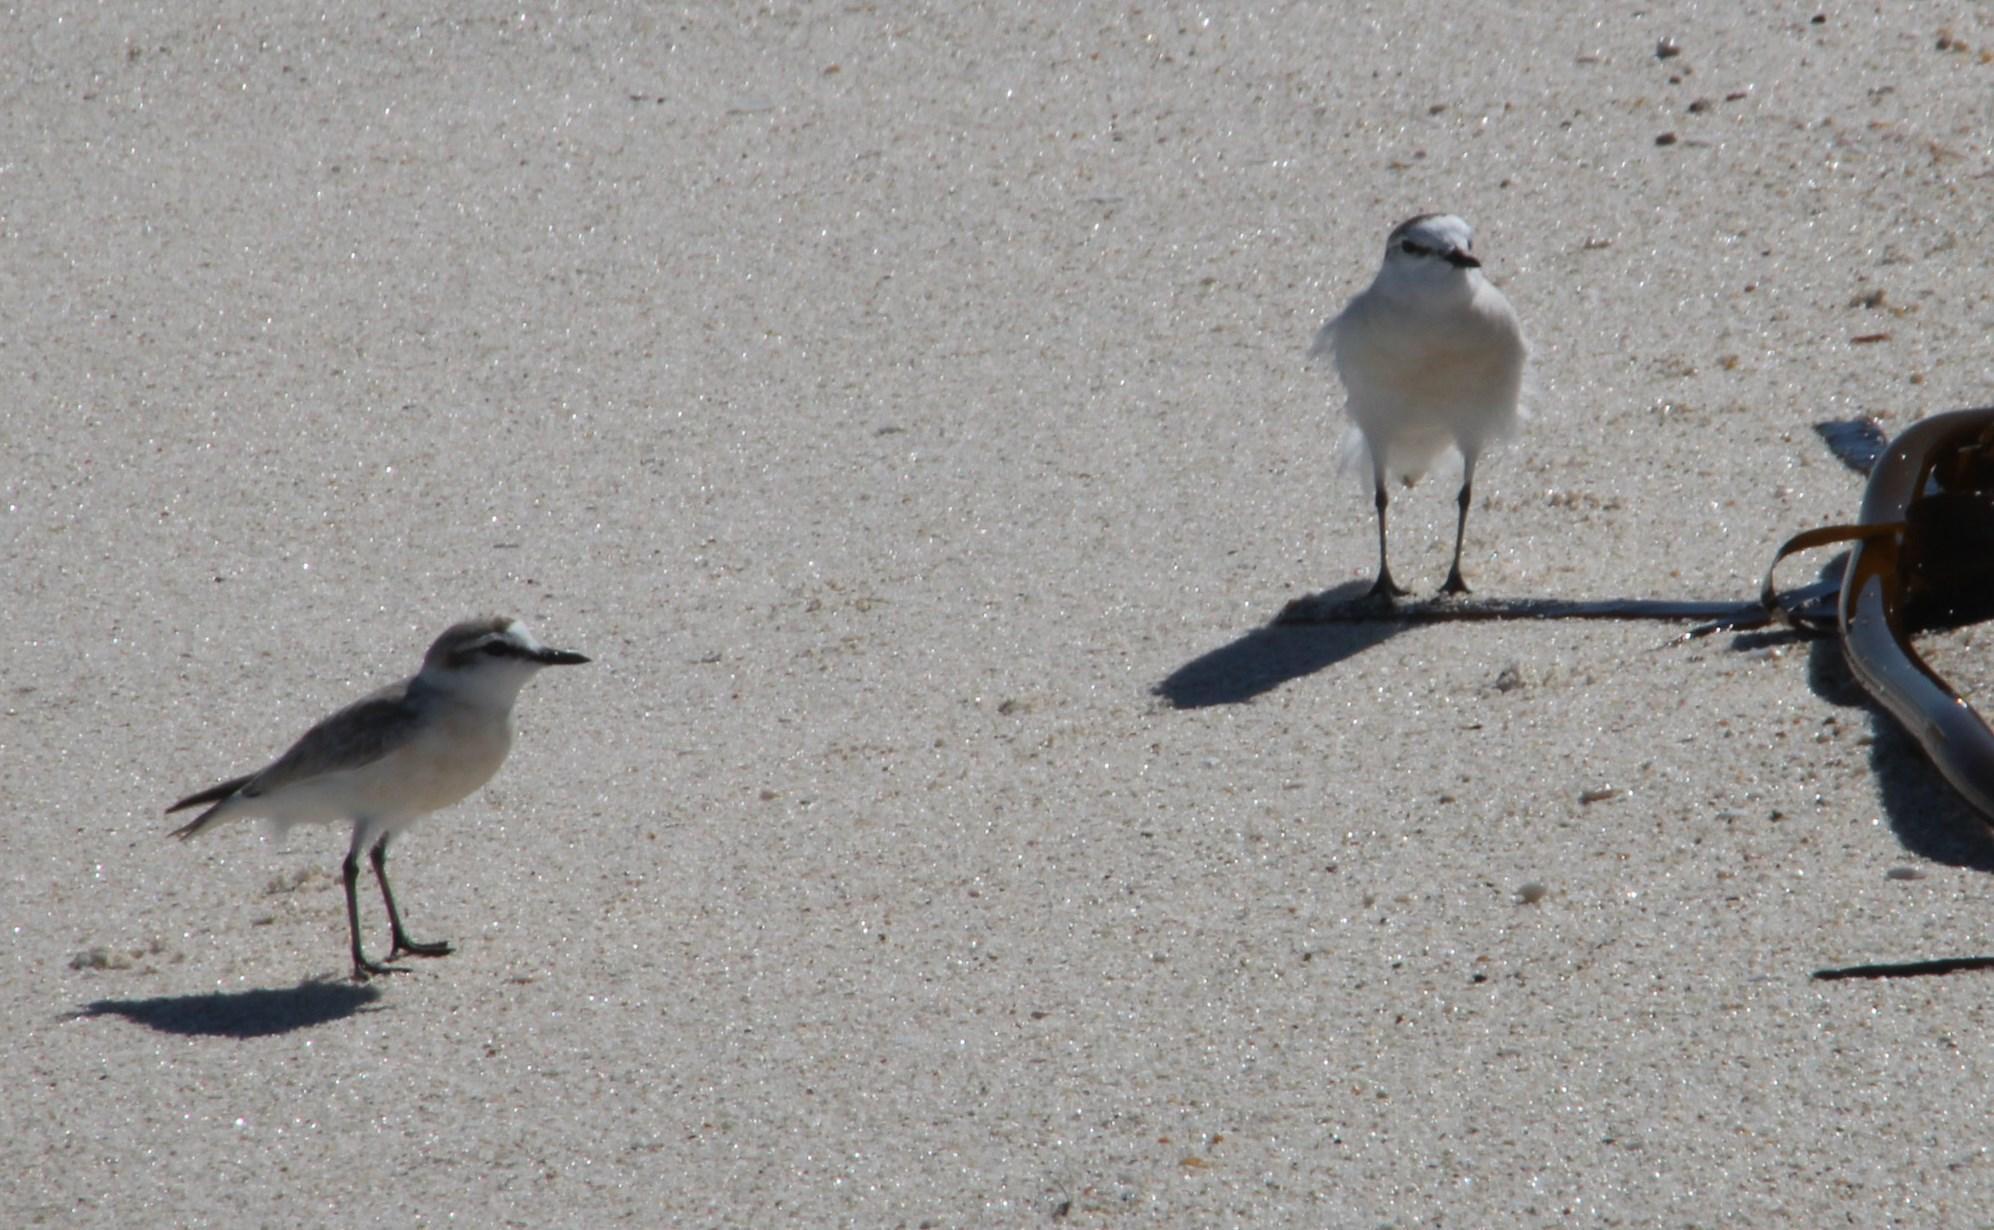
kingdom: Animalia
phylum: Chordata
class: Aves
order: Charadriiformes
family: Charadriidae
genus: Anarhynchus
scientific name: Anarhynchus
